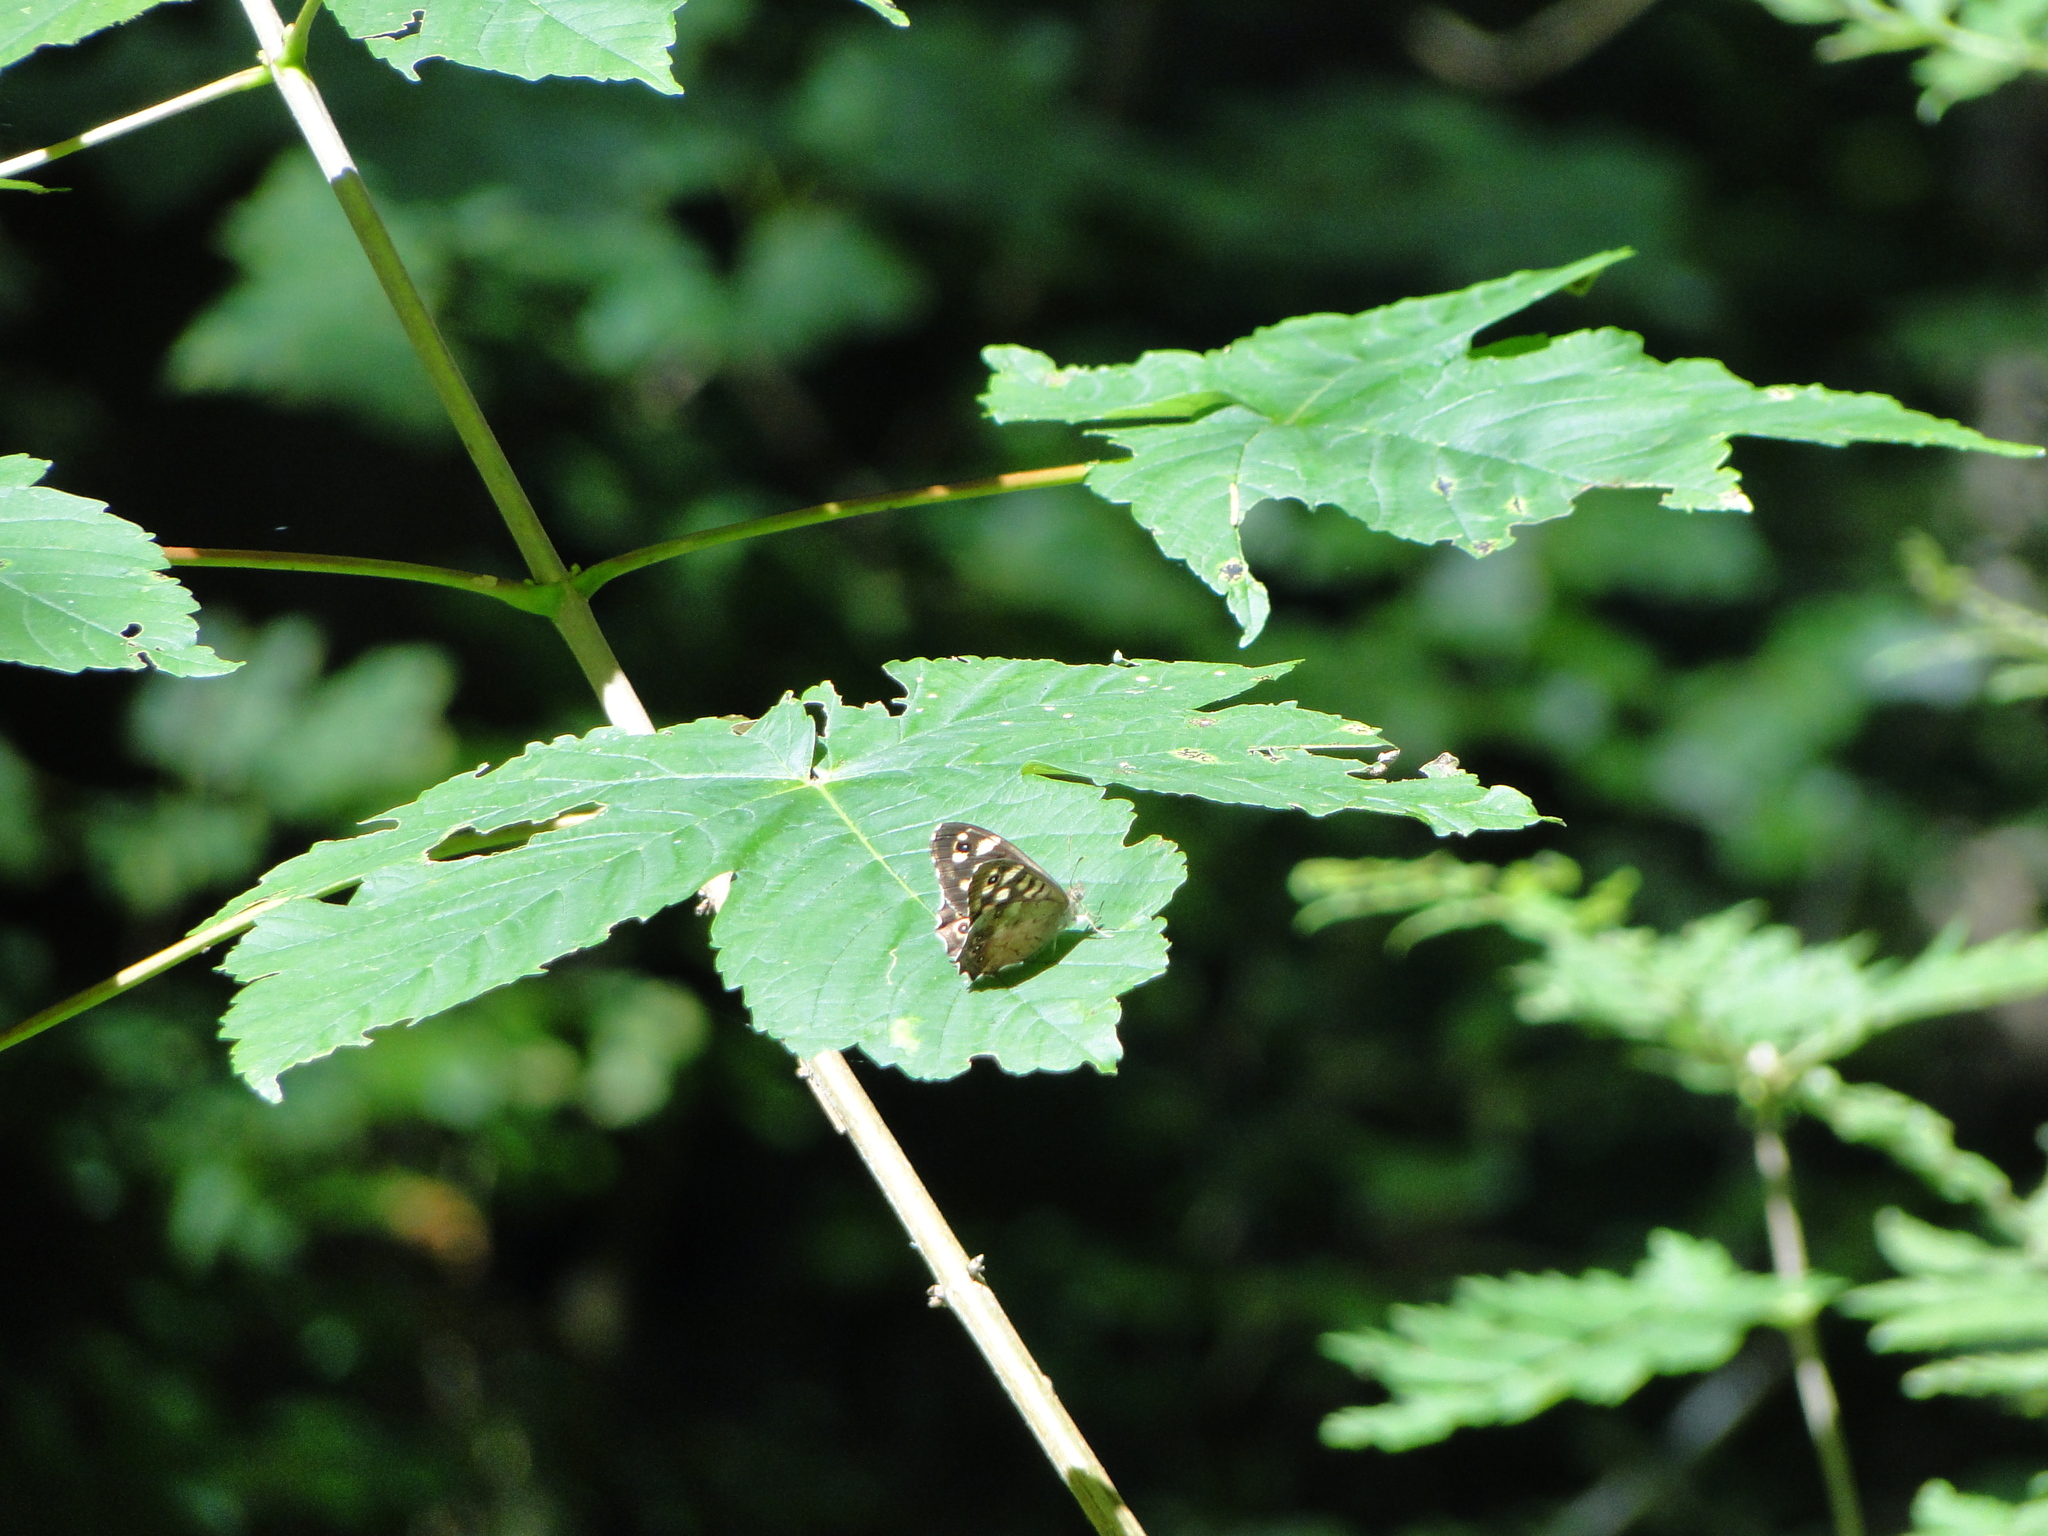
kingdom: Animalia
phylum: Arthropoda
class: Insecta
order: Lepidoptera
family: Nymphalidae
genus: Pararge
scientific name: Pararge aegeria
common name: Speckled wood
